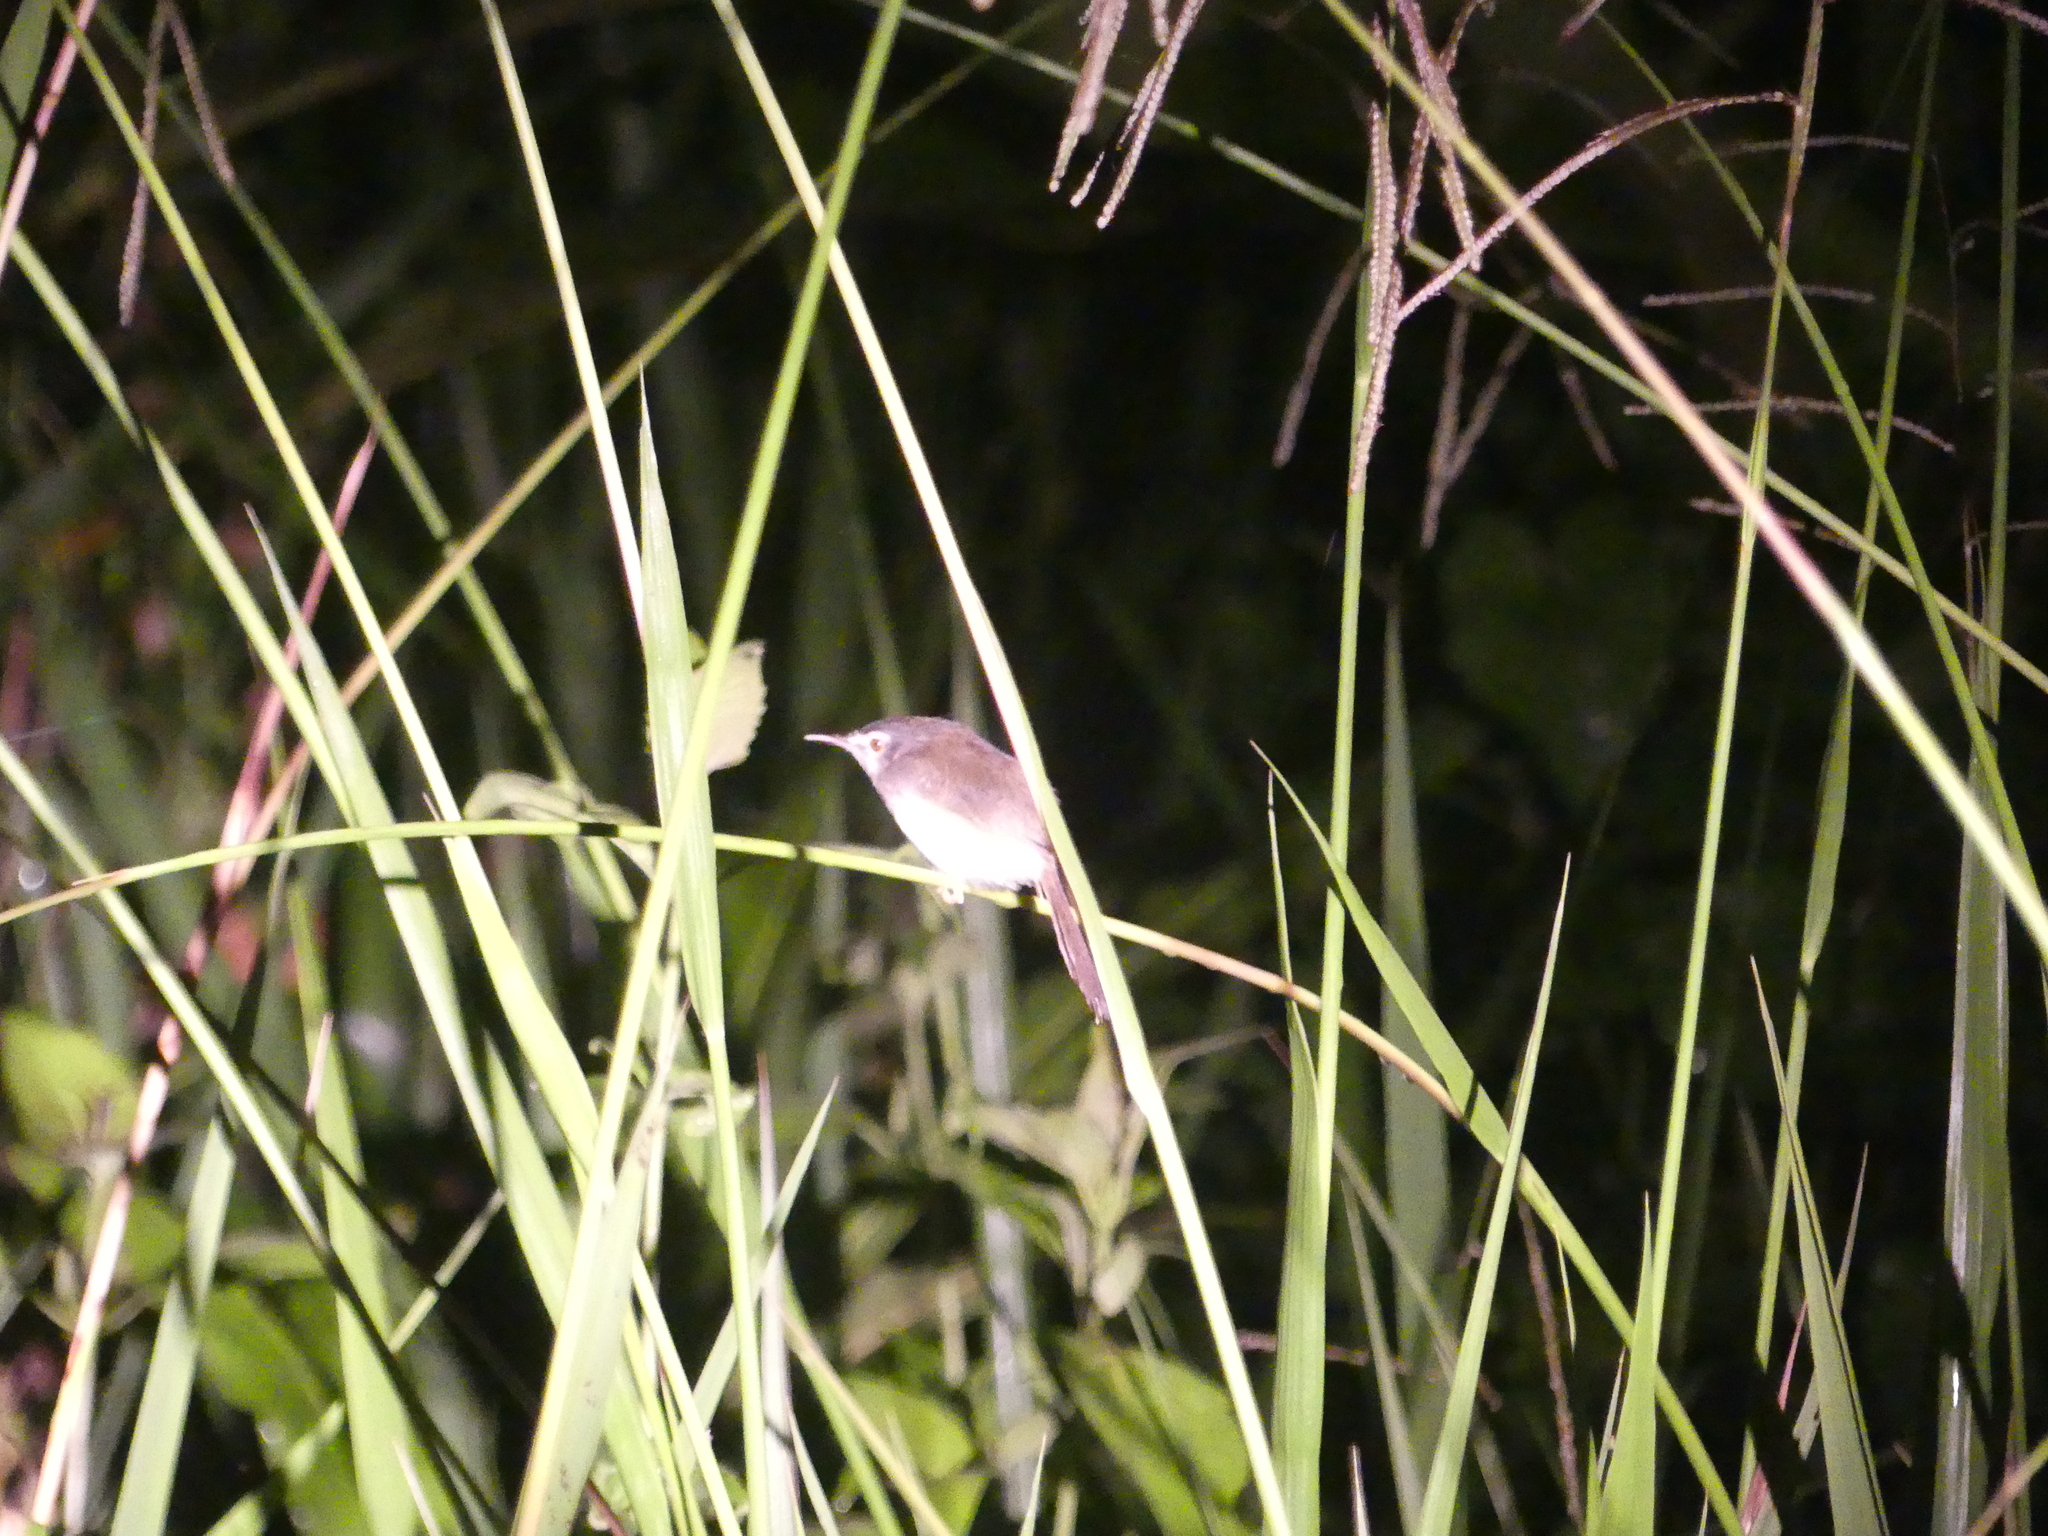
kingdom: Animalia
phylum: Chordata
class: Aves
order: Passeriformes
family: Cisticolidae
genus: Prinia
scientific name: Prinia flaviventris
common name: Yellow-bellied prinia
